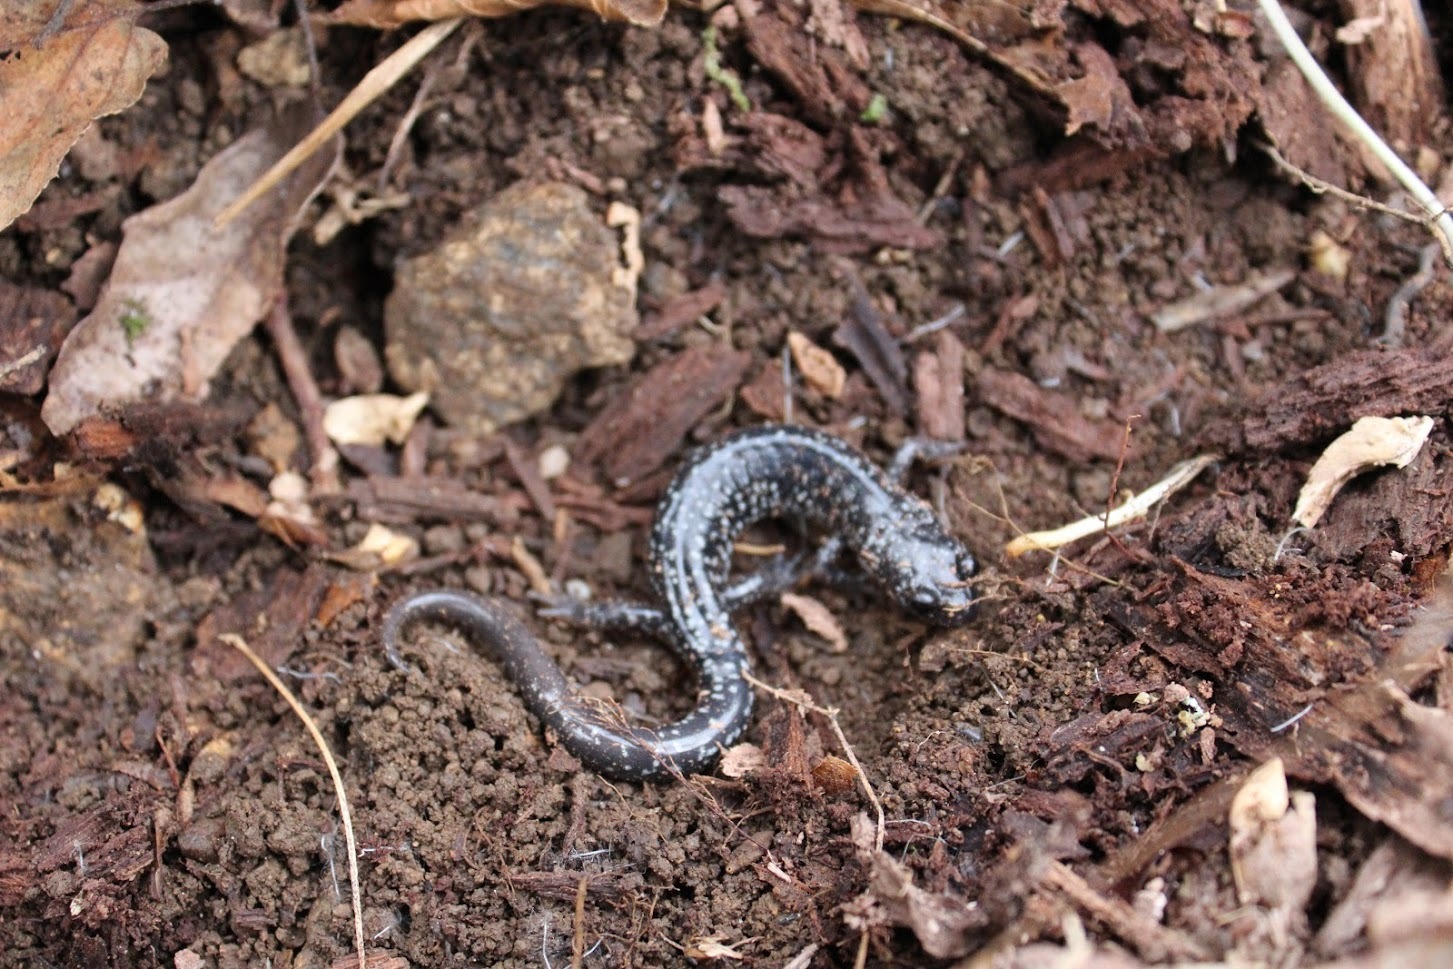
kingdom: Animalia
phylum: Chordata
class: Amphibia
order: Caudata
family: Plethodontidae
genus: Plethodon
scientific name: Plethodon cylindraceus
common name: White-spotted slimy salamander
